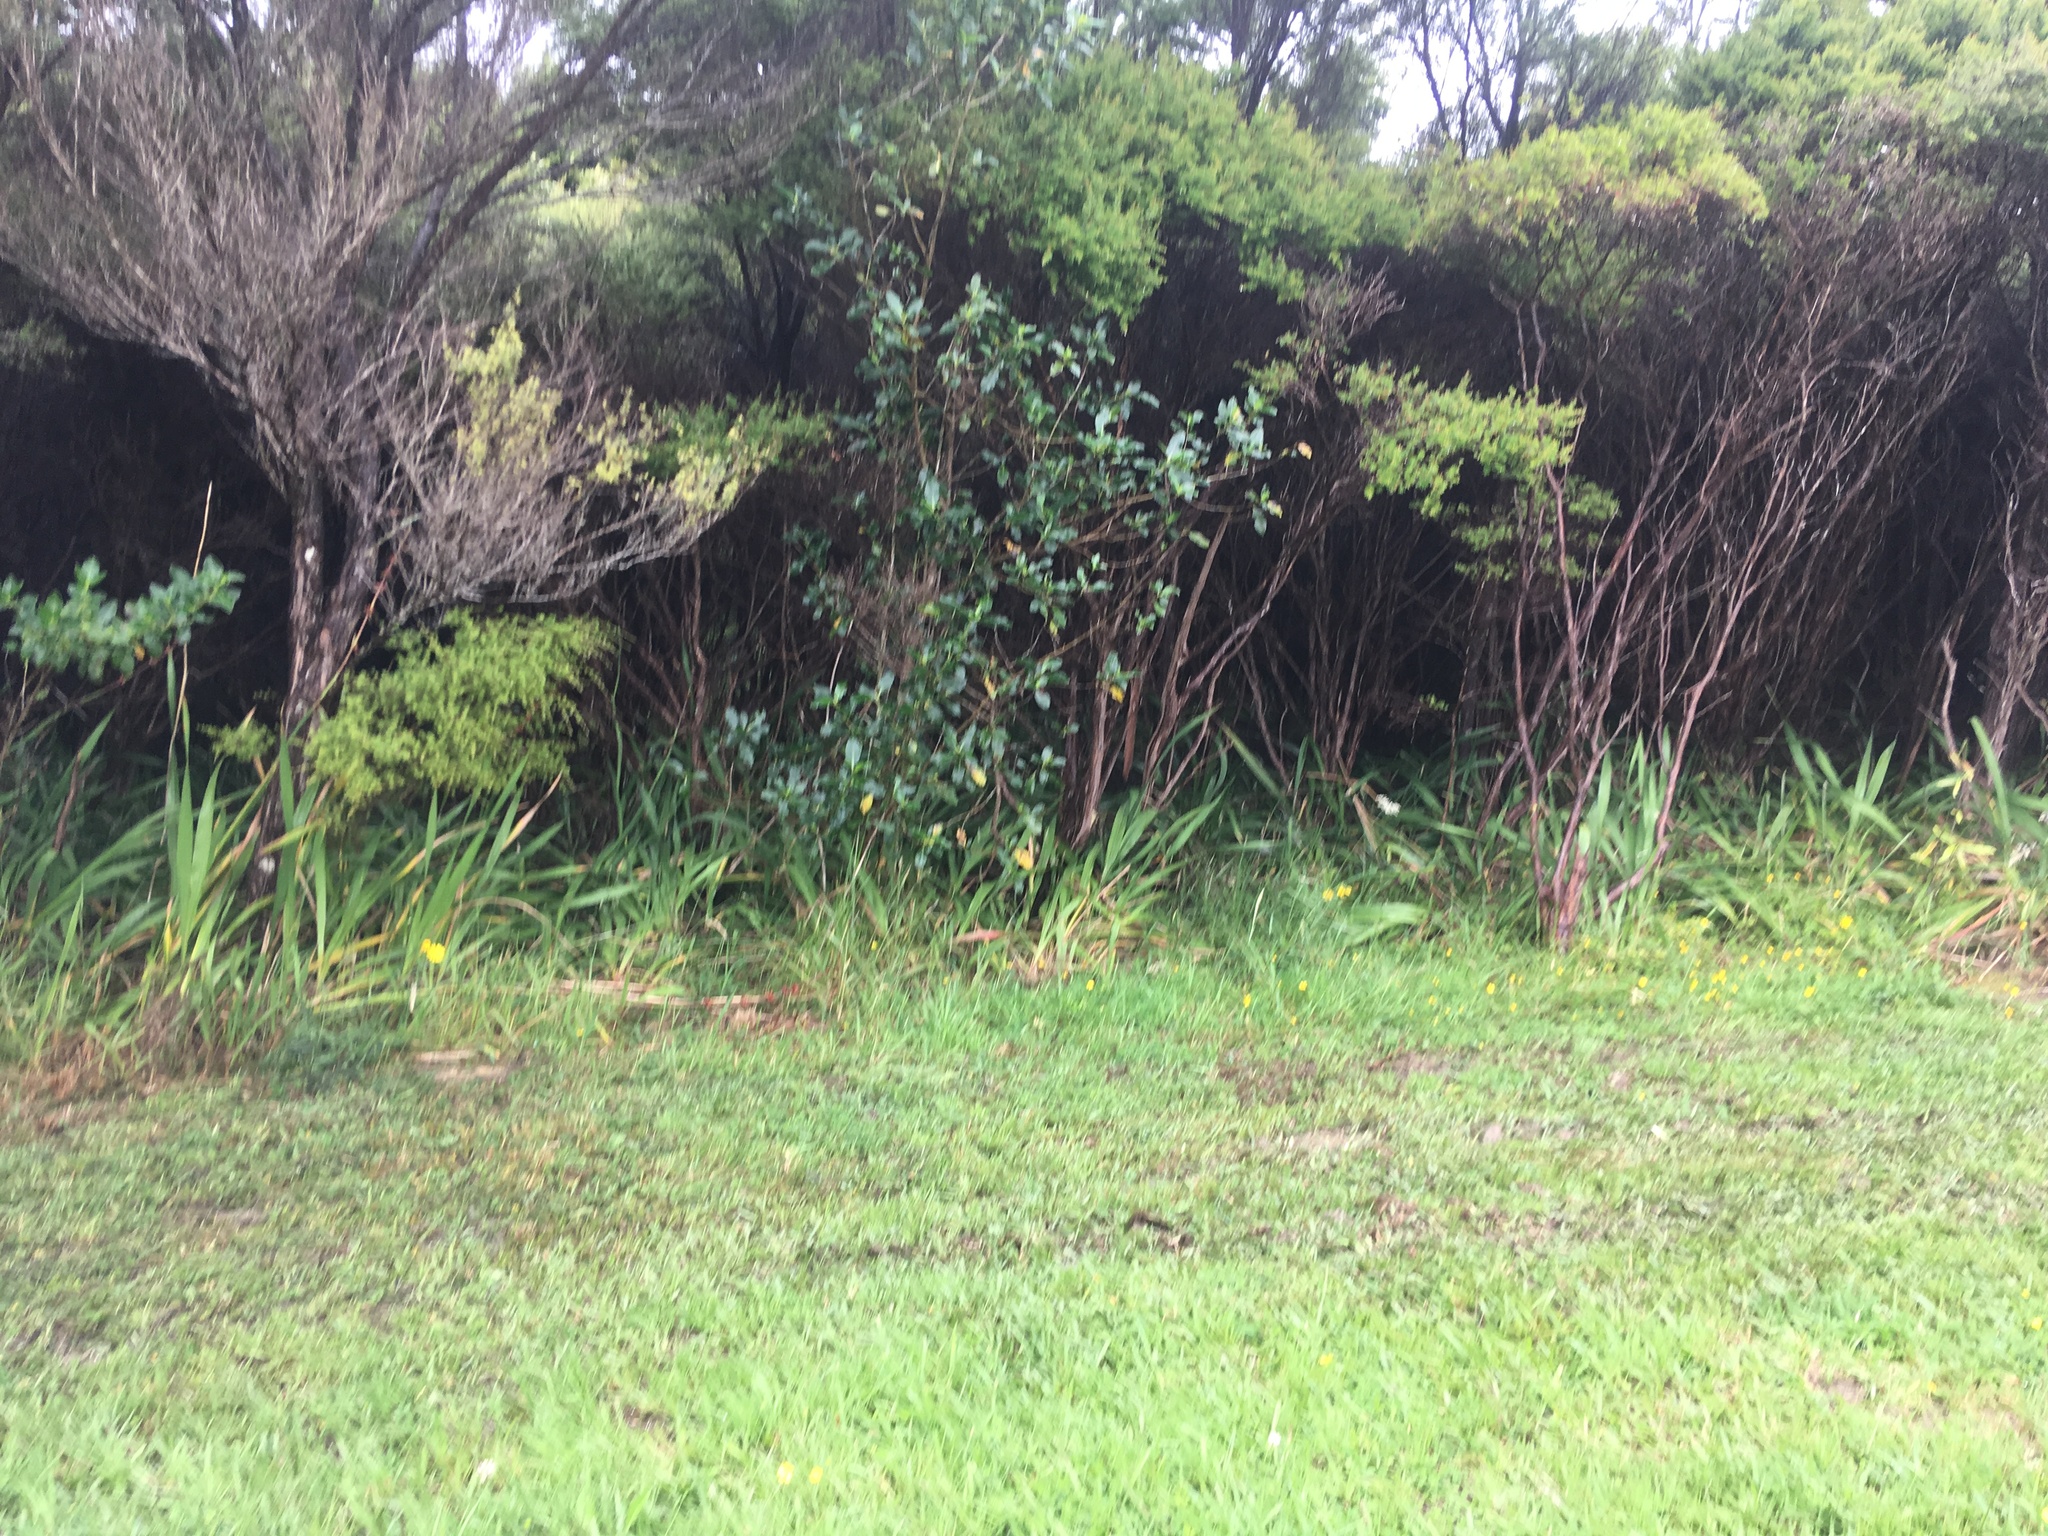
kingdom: Plantae
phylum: Tracheophyta
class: Magnoliopsida
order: Gentianales
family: Rubiaceae
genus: Coprosma
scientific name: Coprosma robusta
